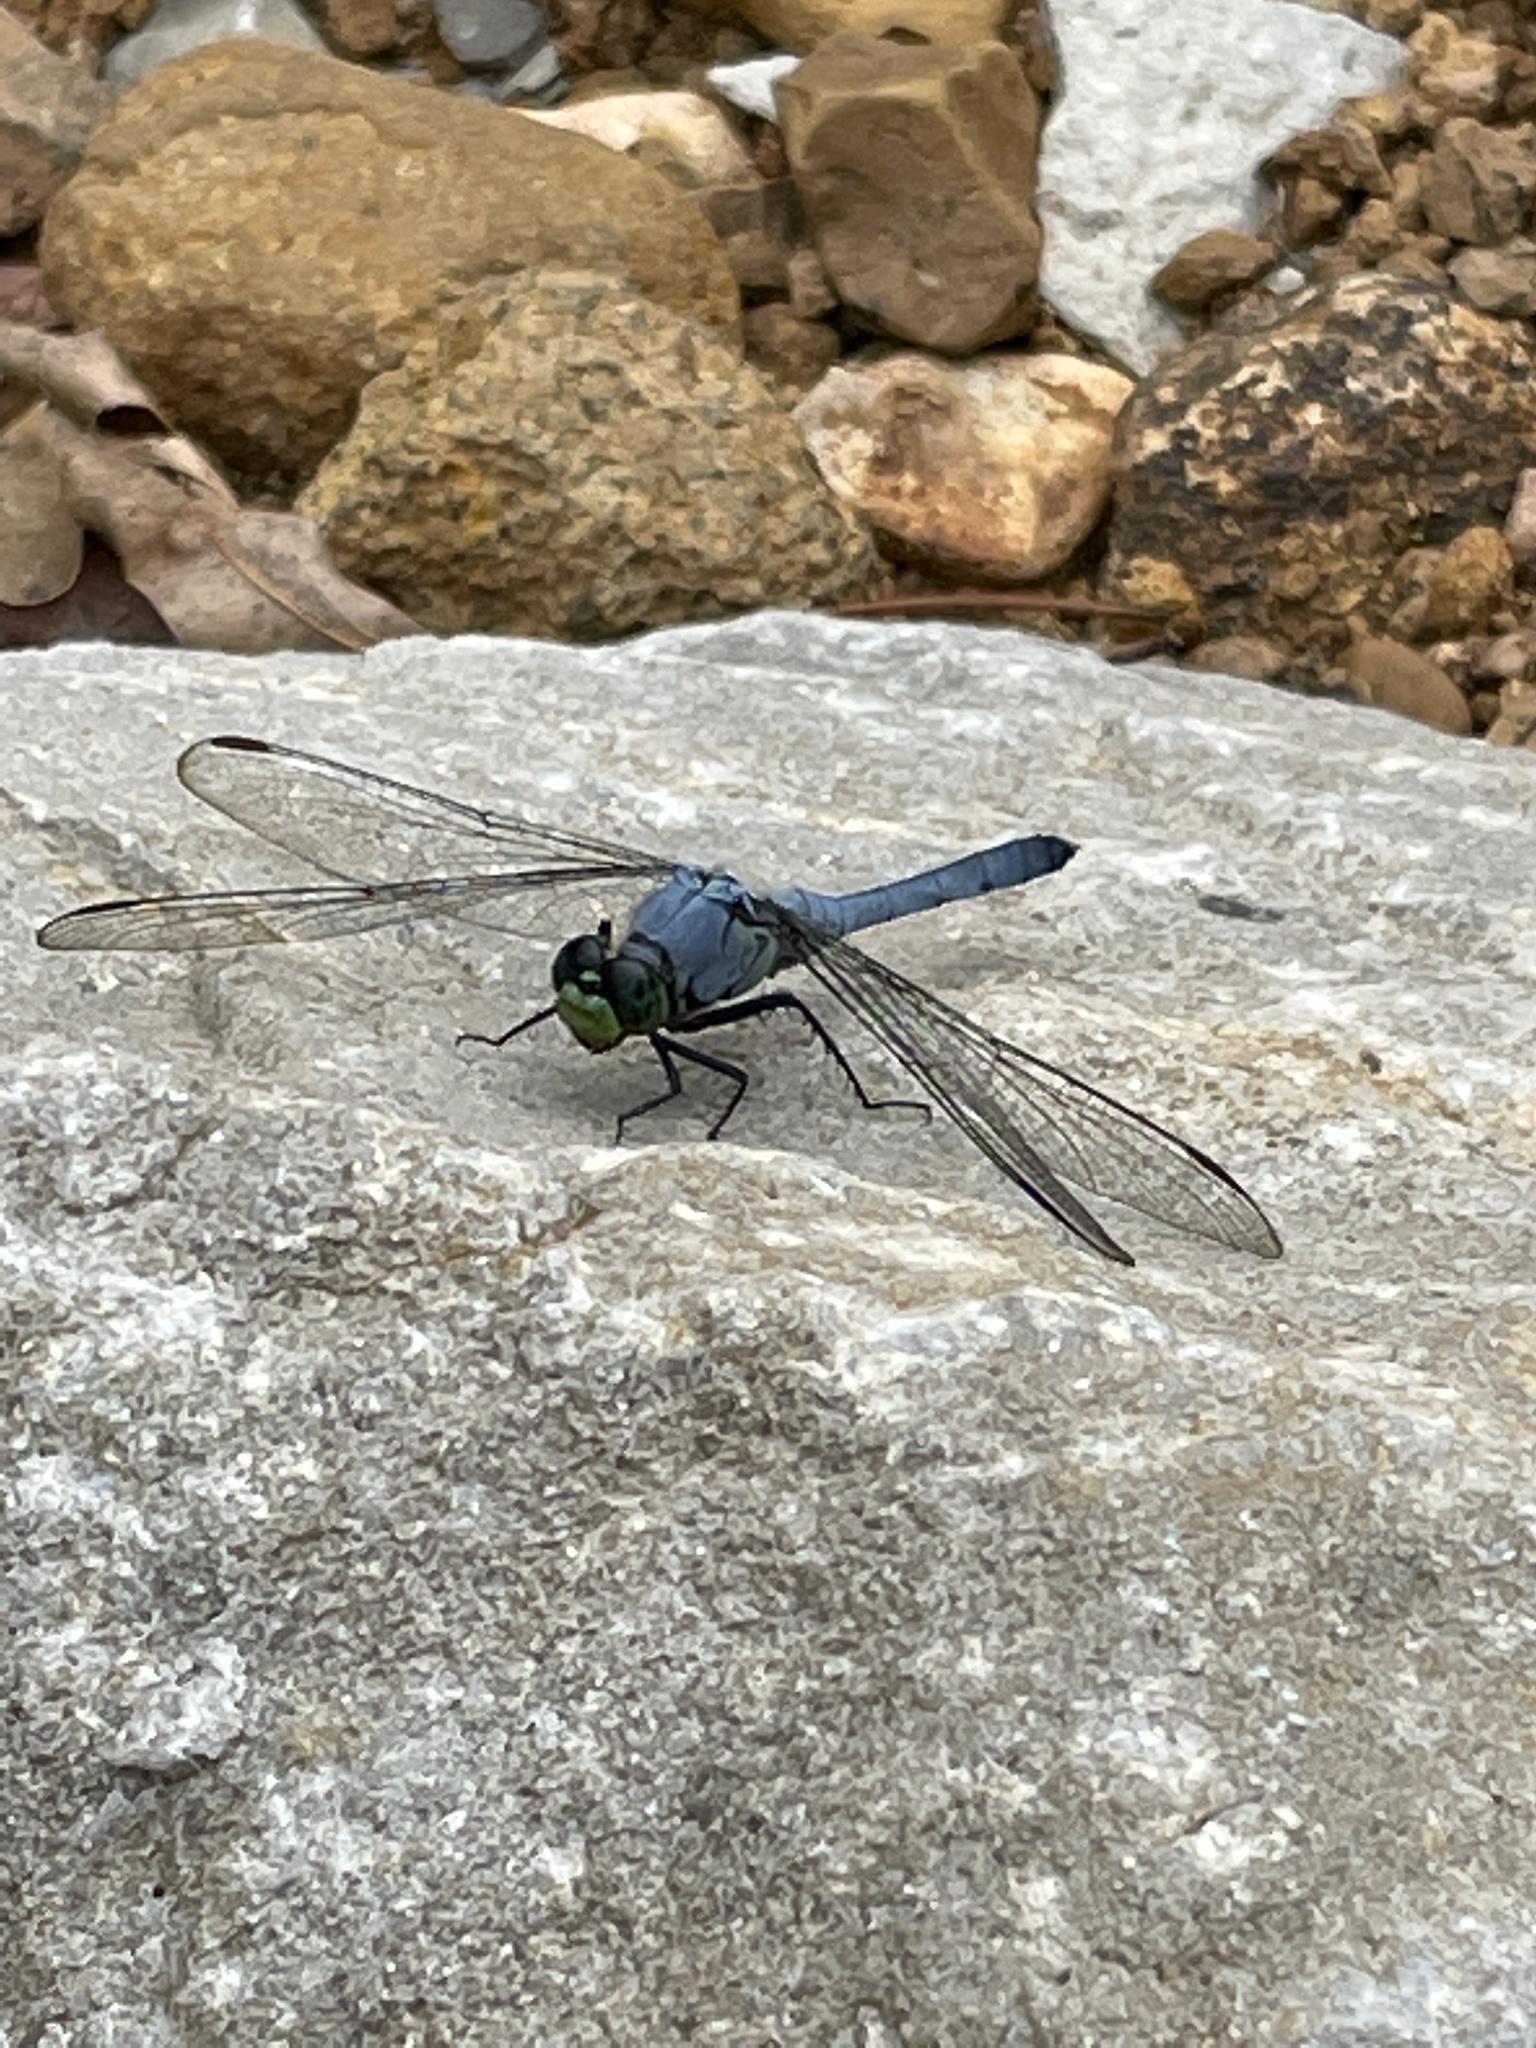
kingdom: Animalia
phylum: Arthropoda
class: Insecta
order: Odonata
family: Libellulidae
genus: Erythemis
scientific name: Erythemis simplicicollis
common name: Eastern pondhawk
